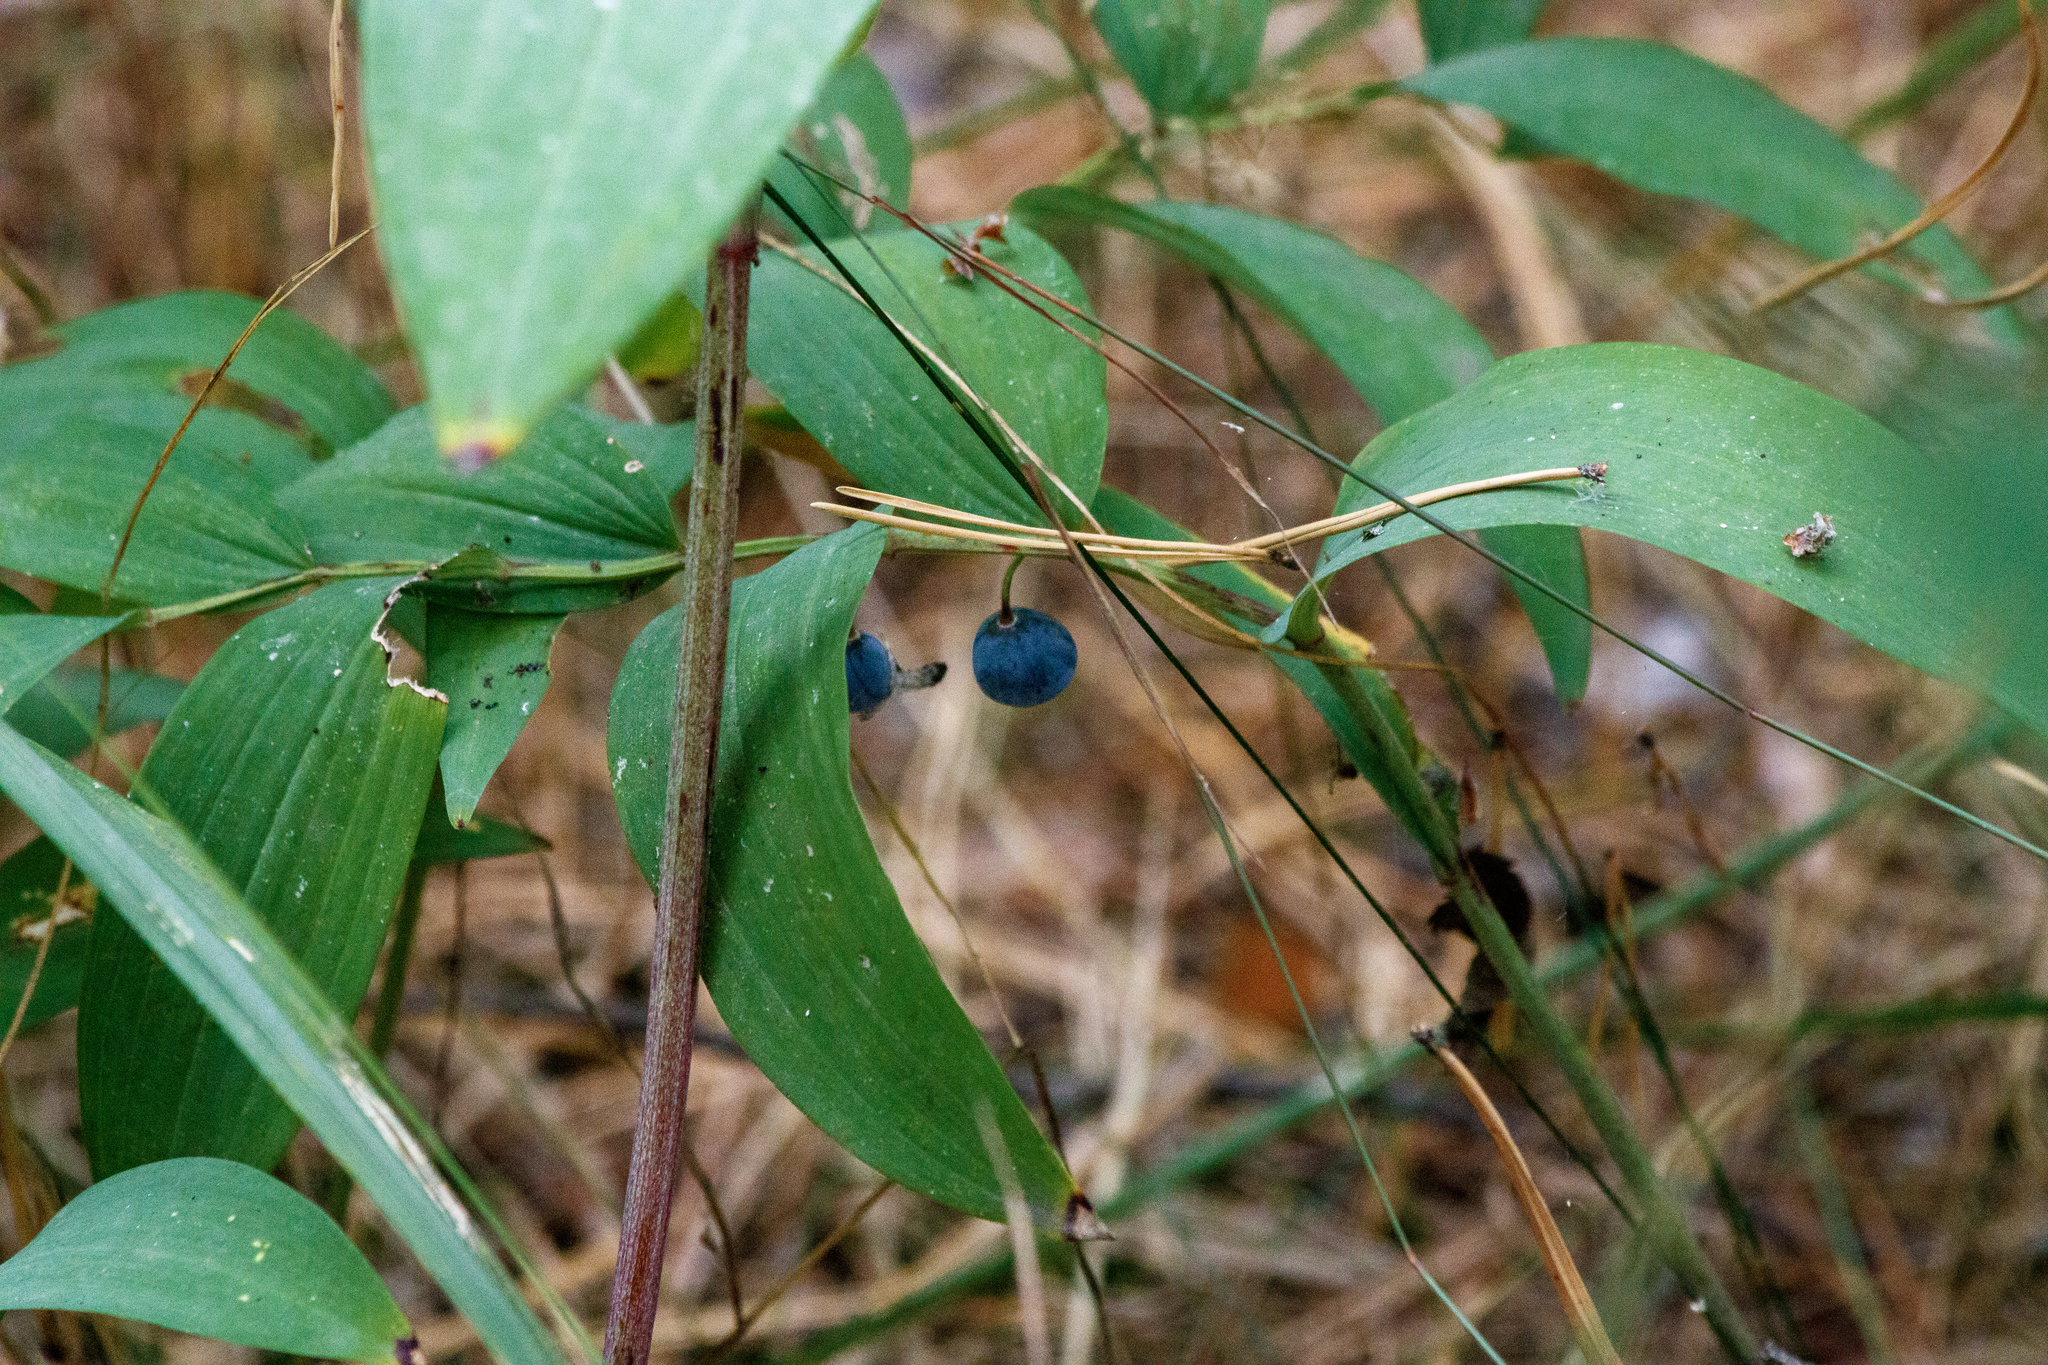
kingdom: Plantae
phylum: Tracheophyta
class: Liliopsida
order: Asparagales
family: Asparagaceae
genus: Polygonatum
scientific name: Polygonatum odoratum
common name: Angular solomon's-seal
